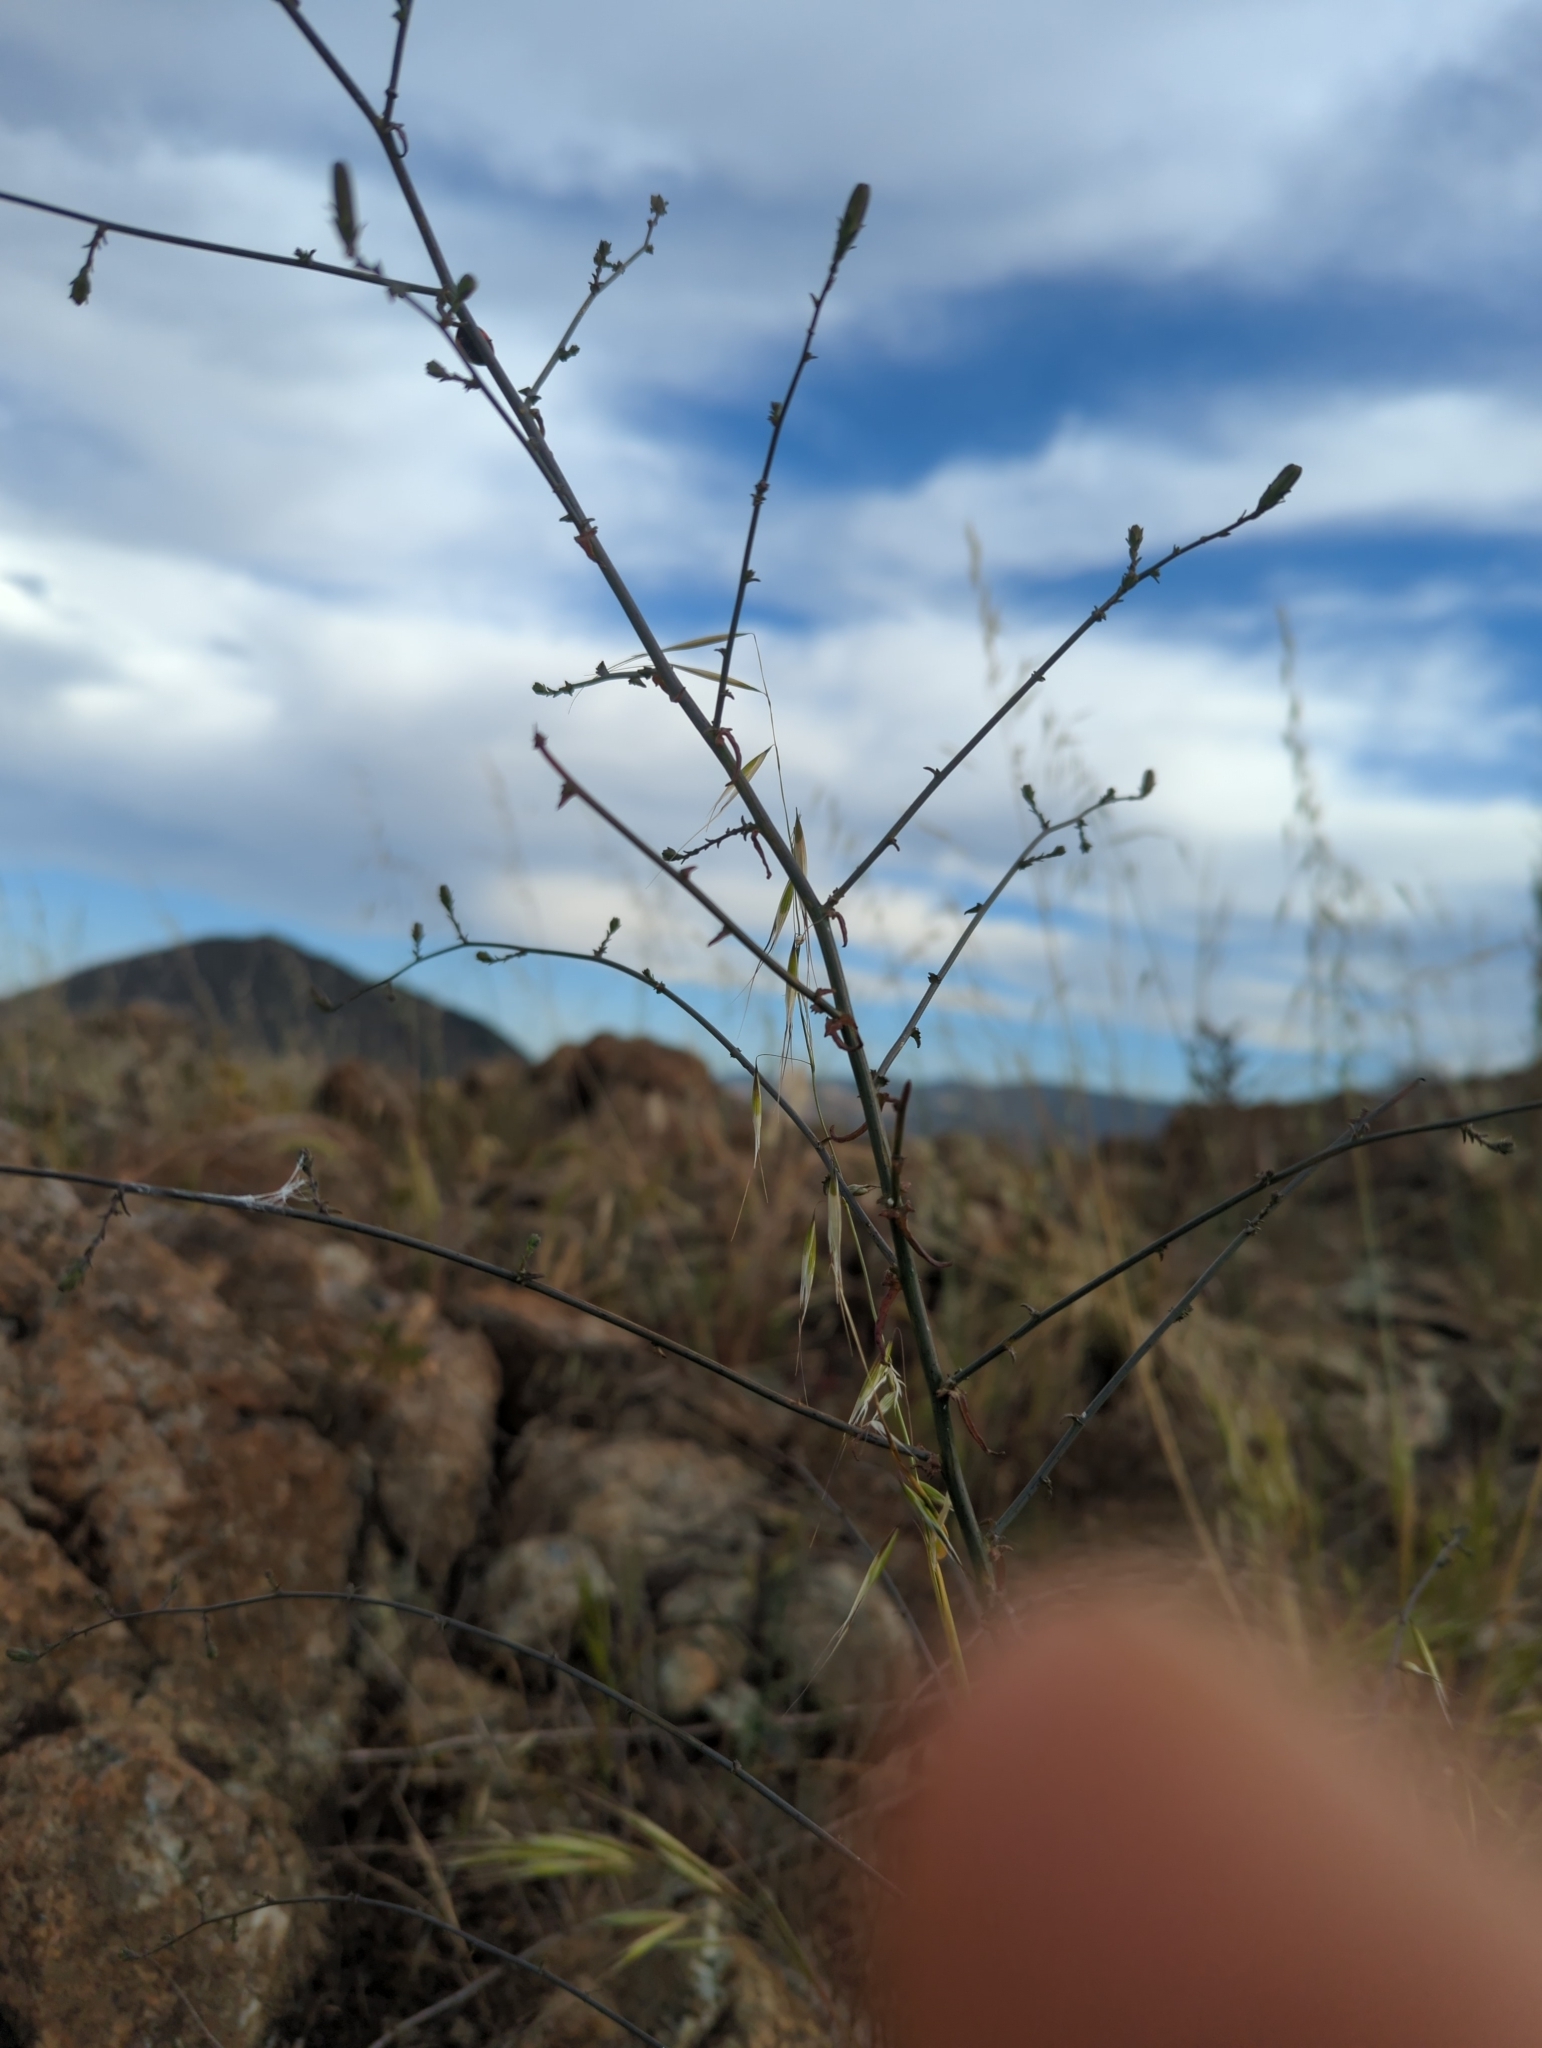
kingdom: Plantae
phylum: Tracheophyta
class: Magnoliopsida
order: Asterales
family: Asteraceae
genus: Stephanomeria
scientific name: Stephanomeria cichoriacea
